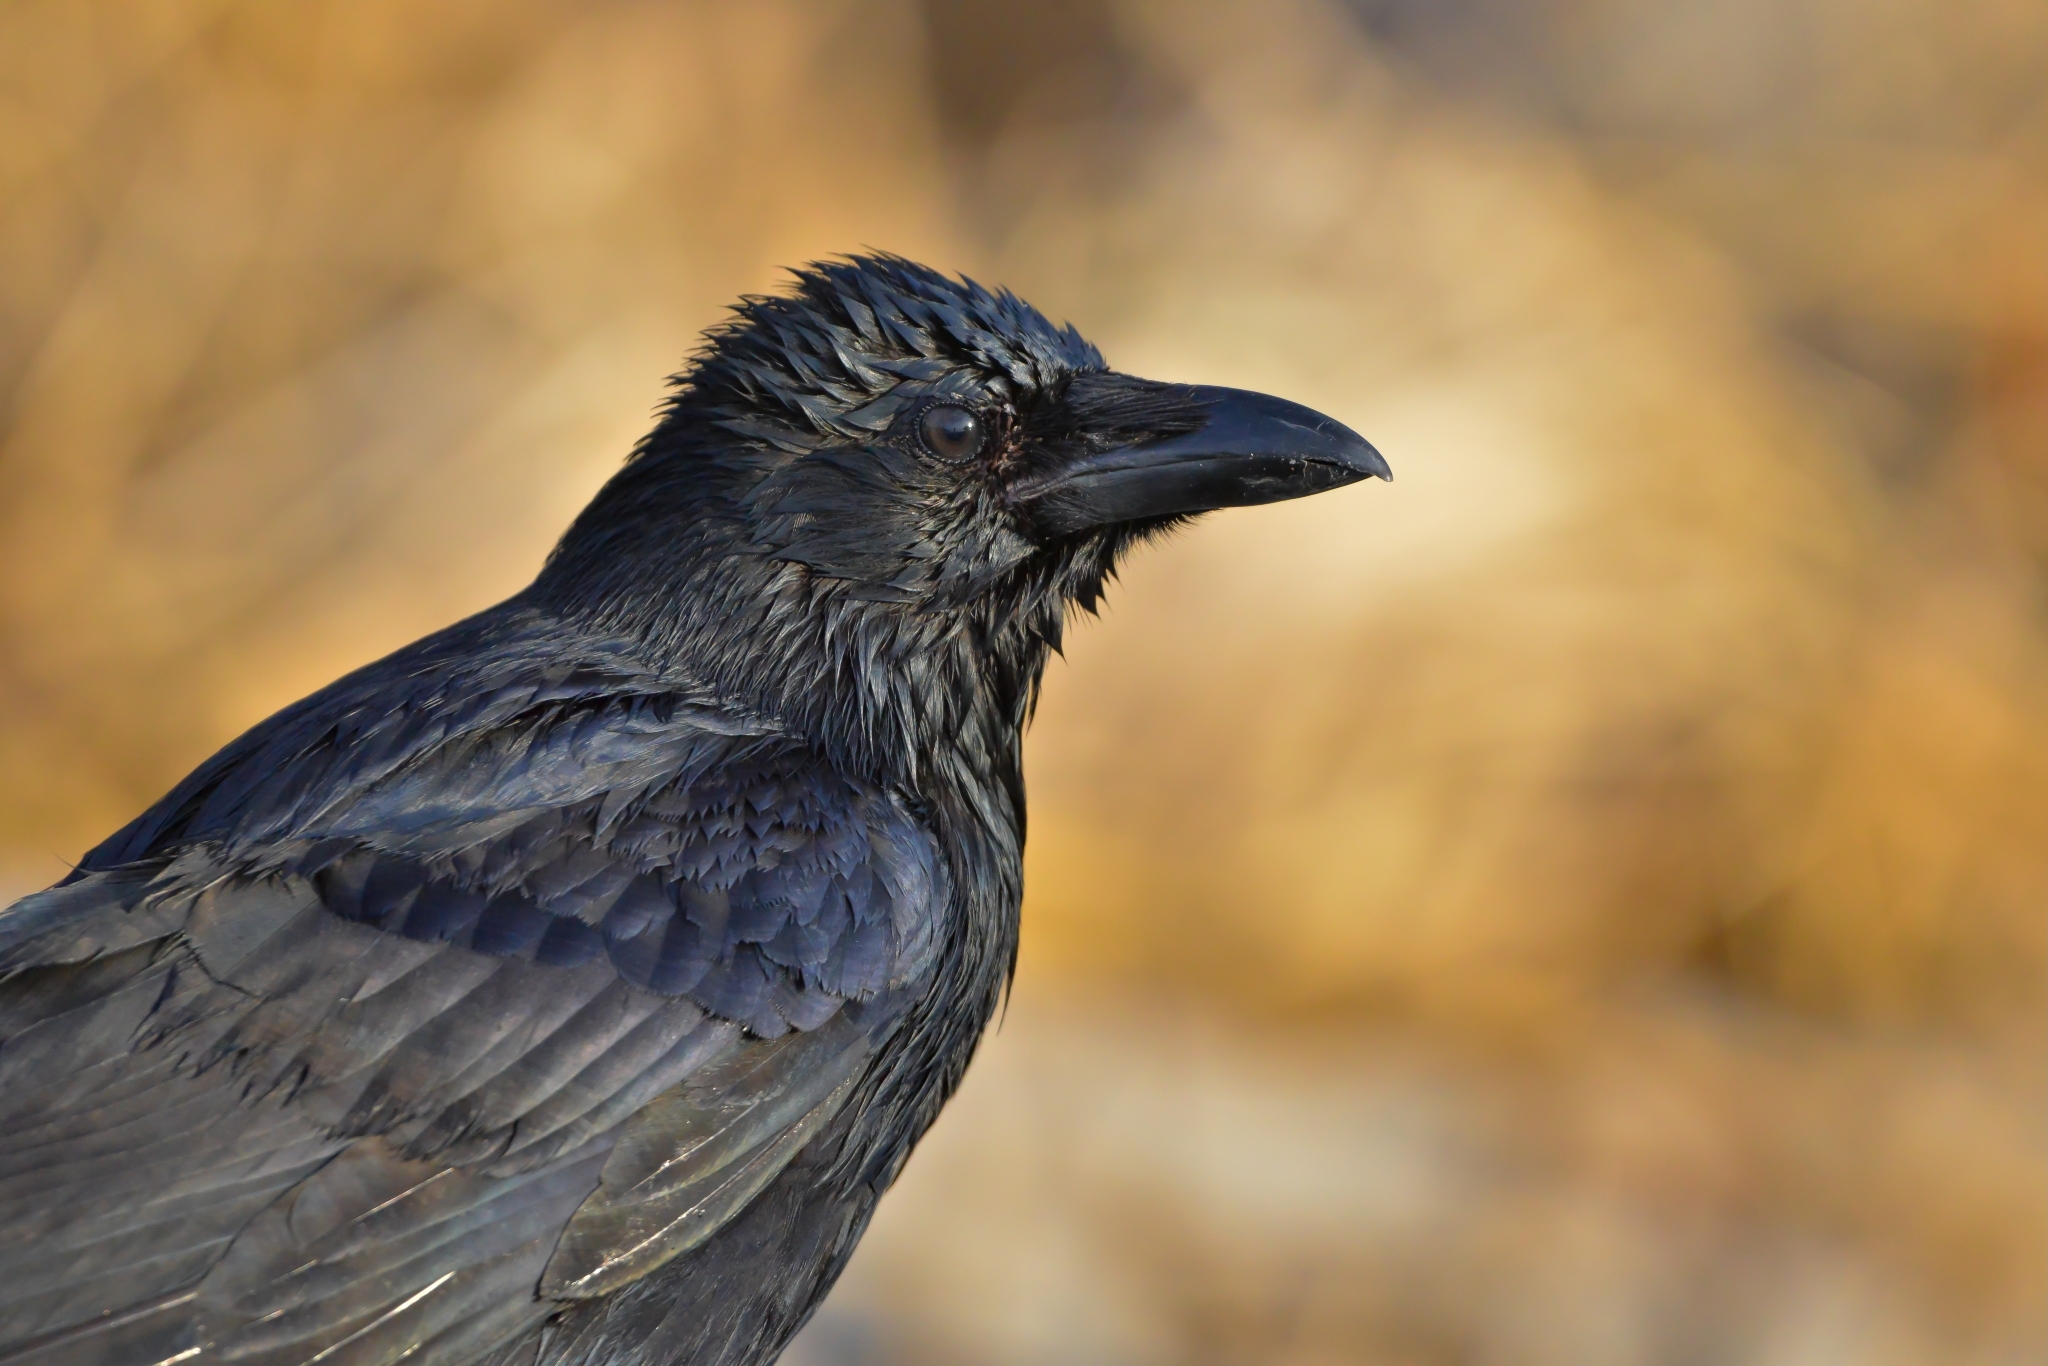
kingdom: Animalia
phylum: Chordata
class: Aves
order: Passeriformes
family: Corvidae
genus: Corvus
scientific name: Corvus corone
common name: Carrion crow
